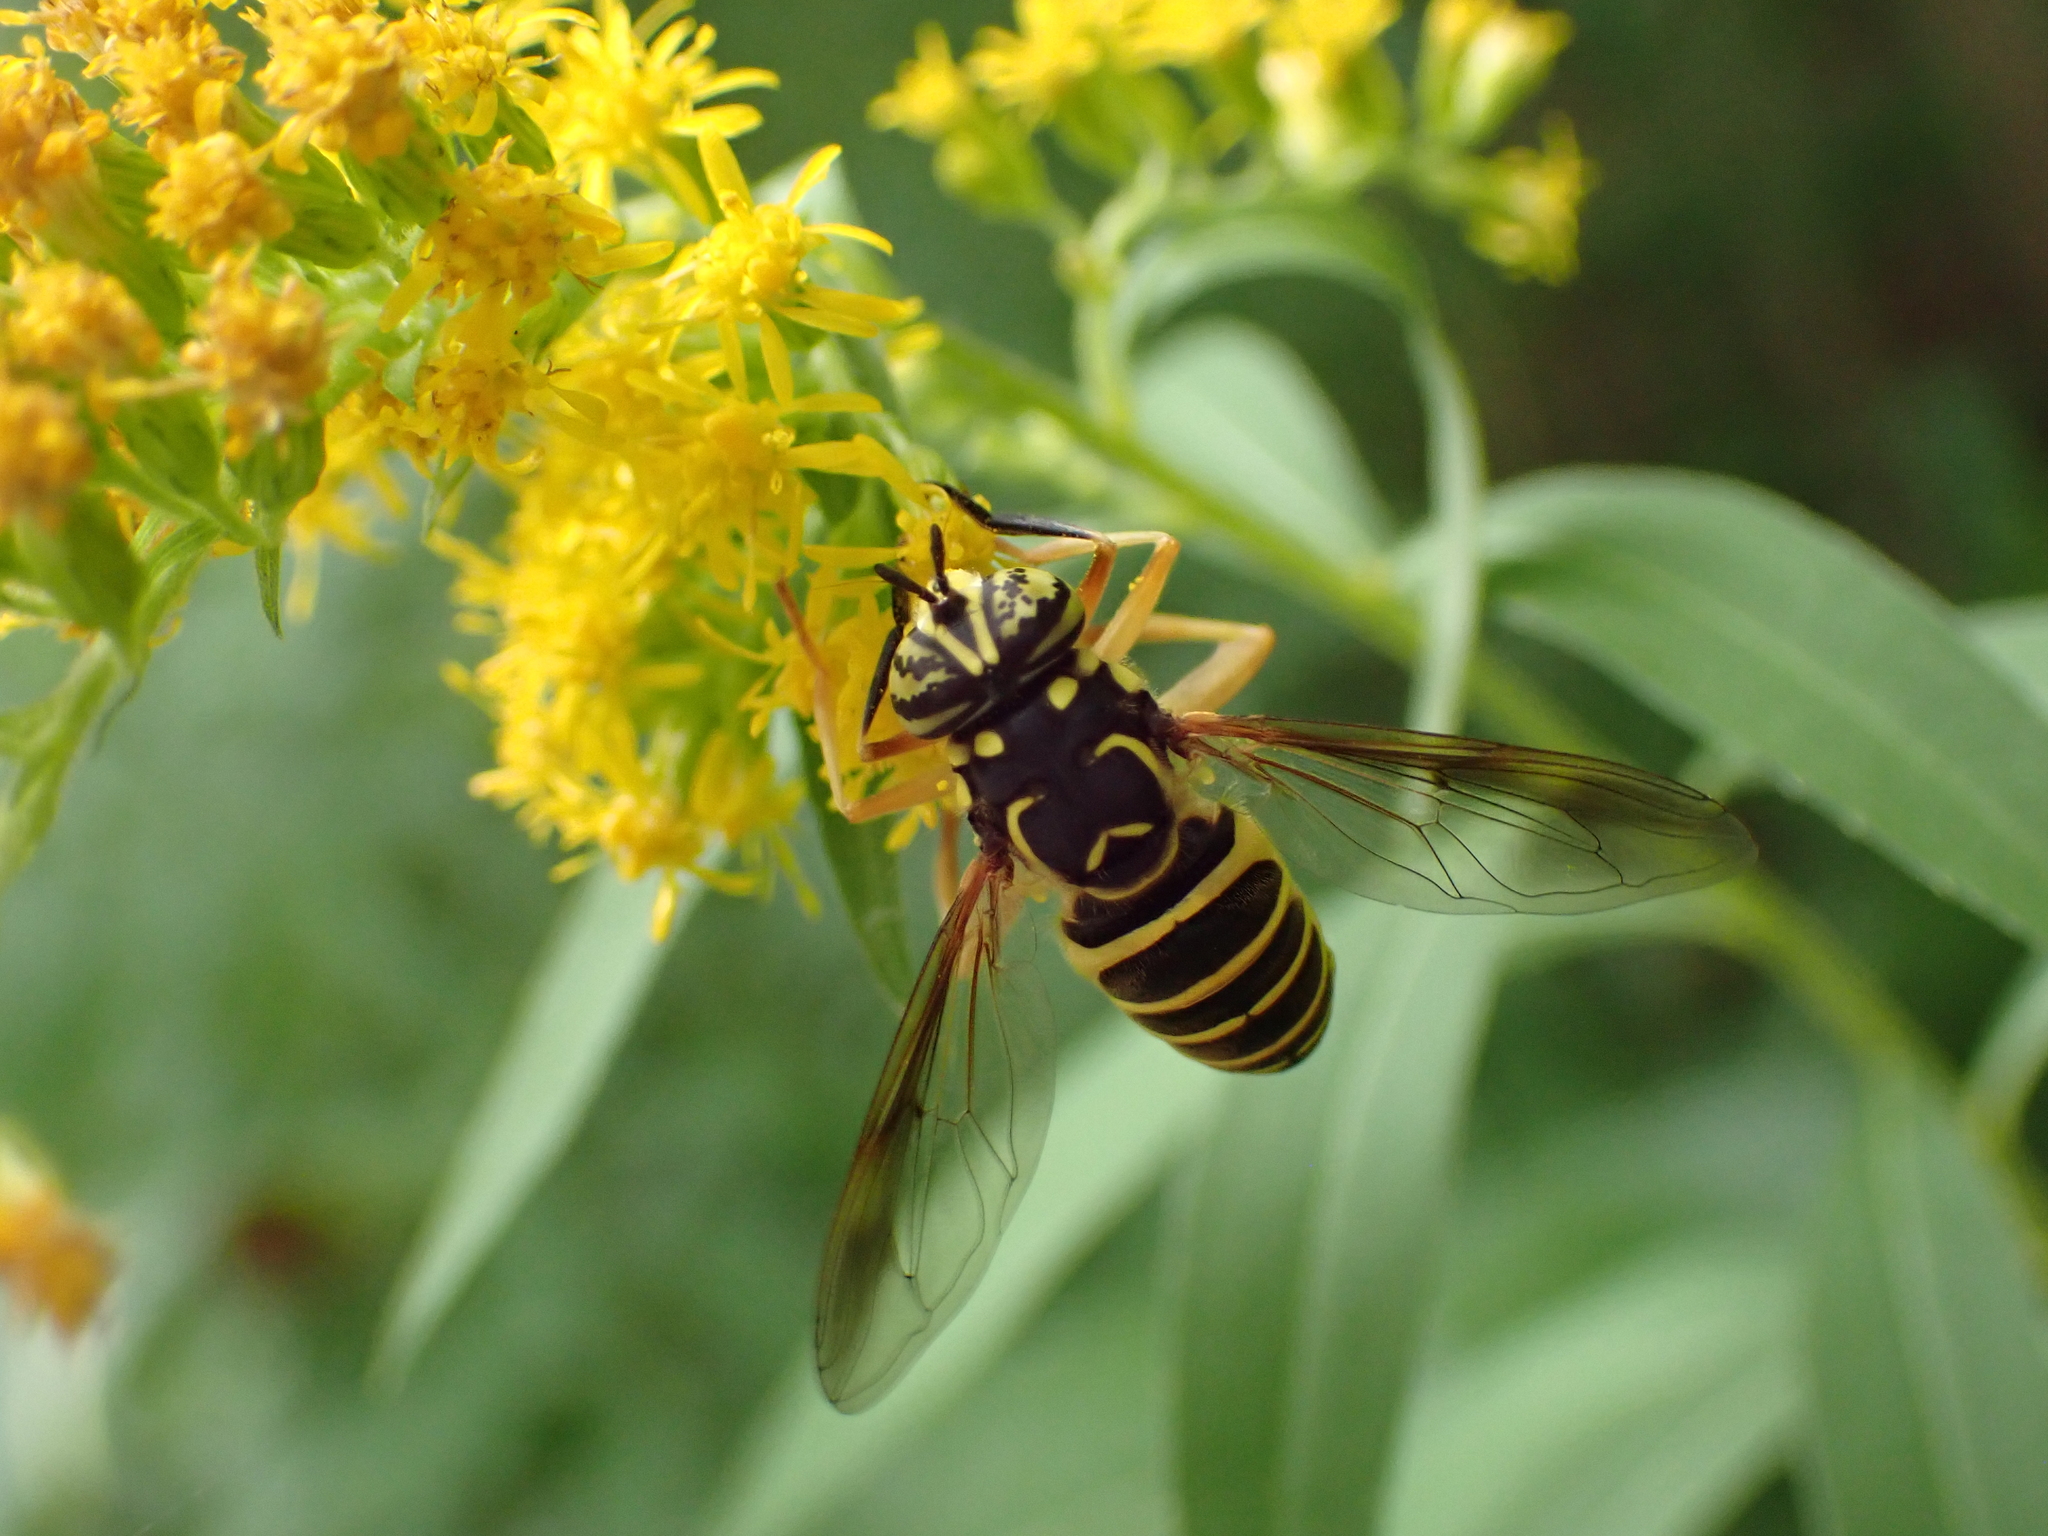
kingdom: Animalia
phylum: Arthropoda
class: Insecta
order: Diptera
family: Syrphidae
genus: Spilomyia
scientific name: Spilomyia longicornis
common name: Eastern hornet fly
